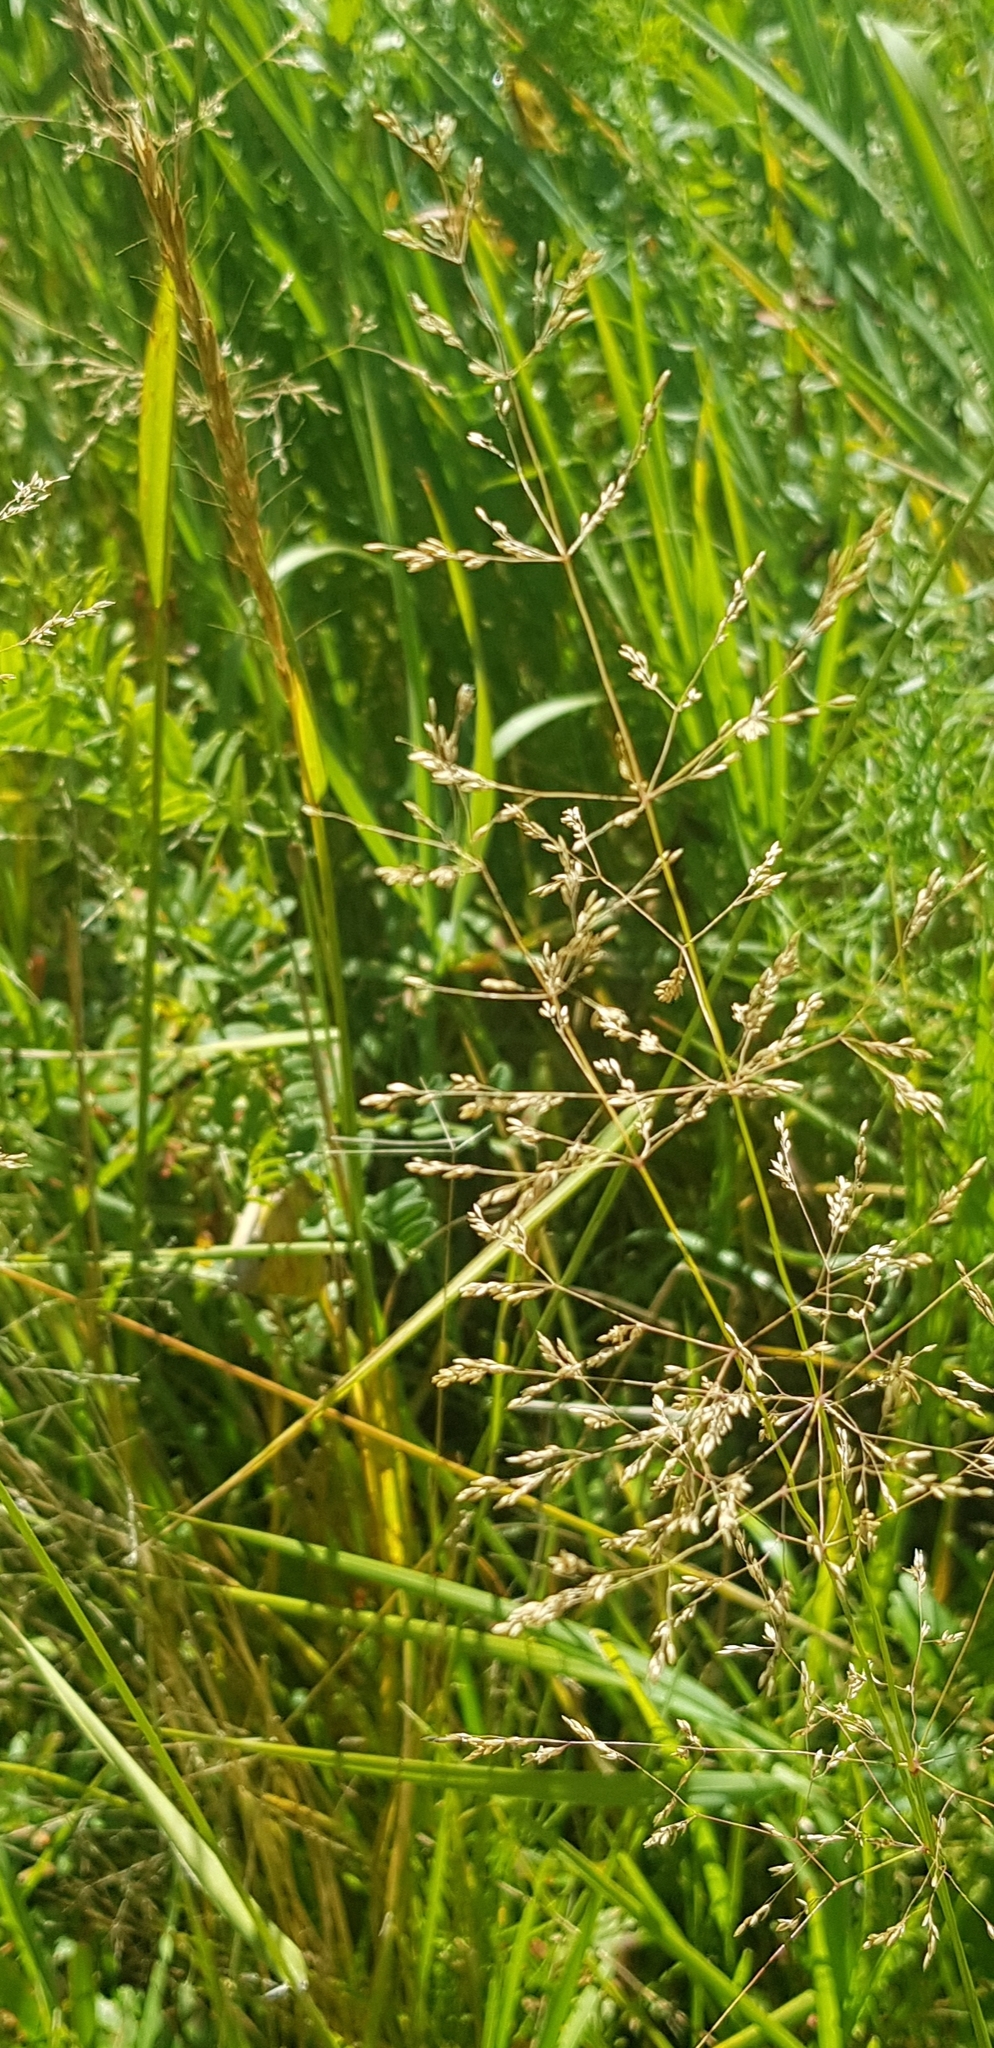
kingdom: Plantae
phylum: Tracheophyta
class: Liliopsida
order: Poales
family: Poaceae
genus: Poa
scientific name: Poa pratensis
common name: Kentucky bluegrass
